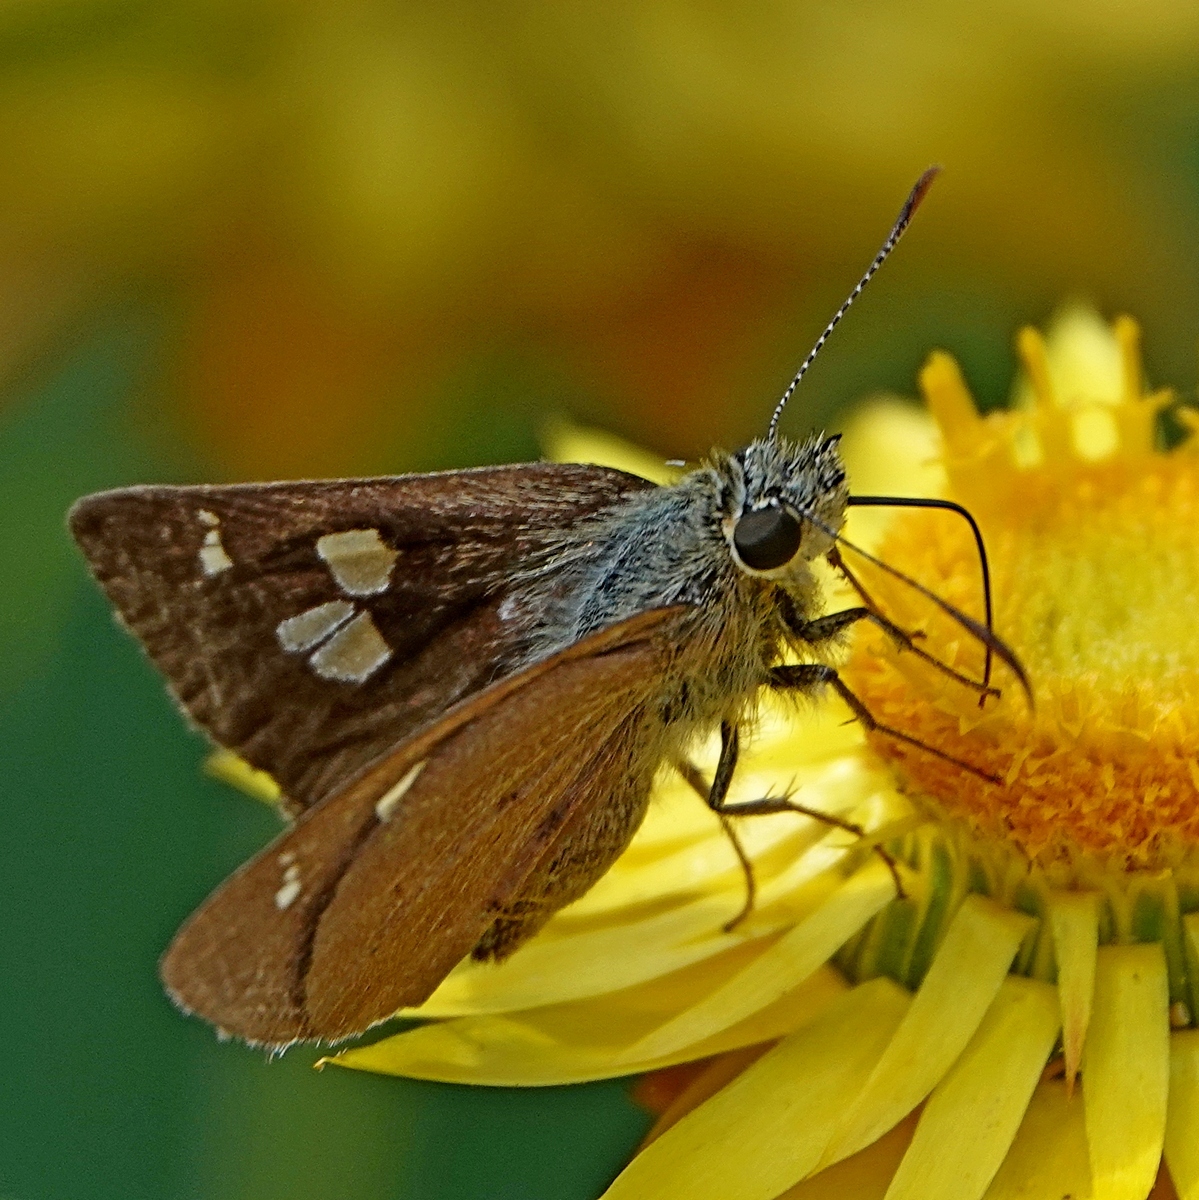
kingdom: Animalia
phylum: Arthropoda
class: Insecta
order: Lepidoptera
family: Hesperiidae
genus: Toxidia
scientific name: Toxidia
